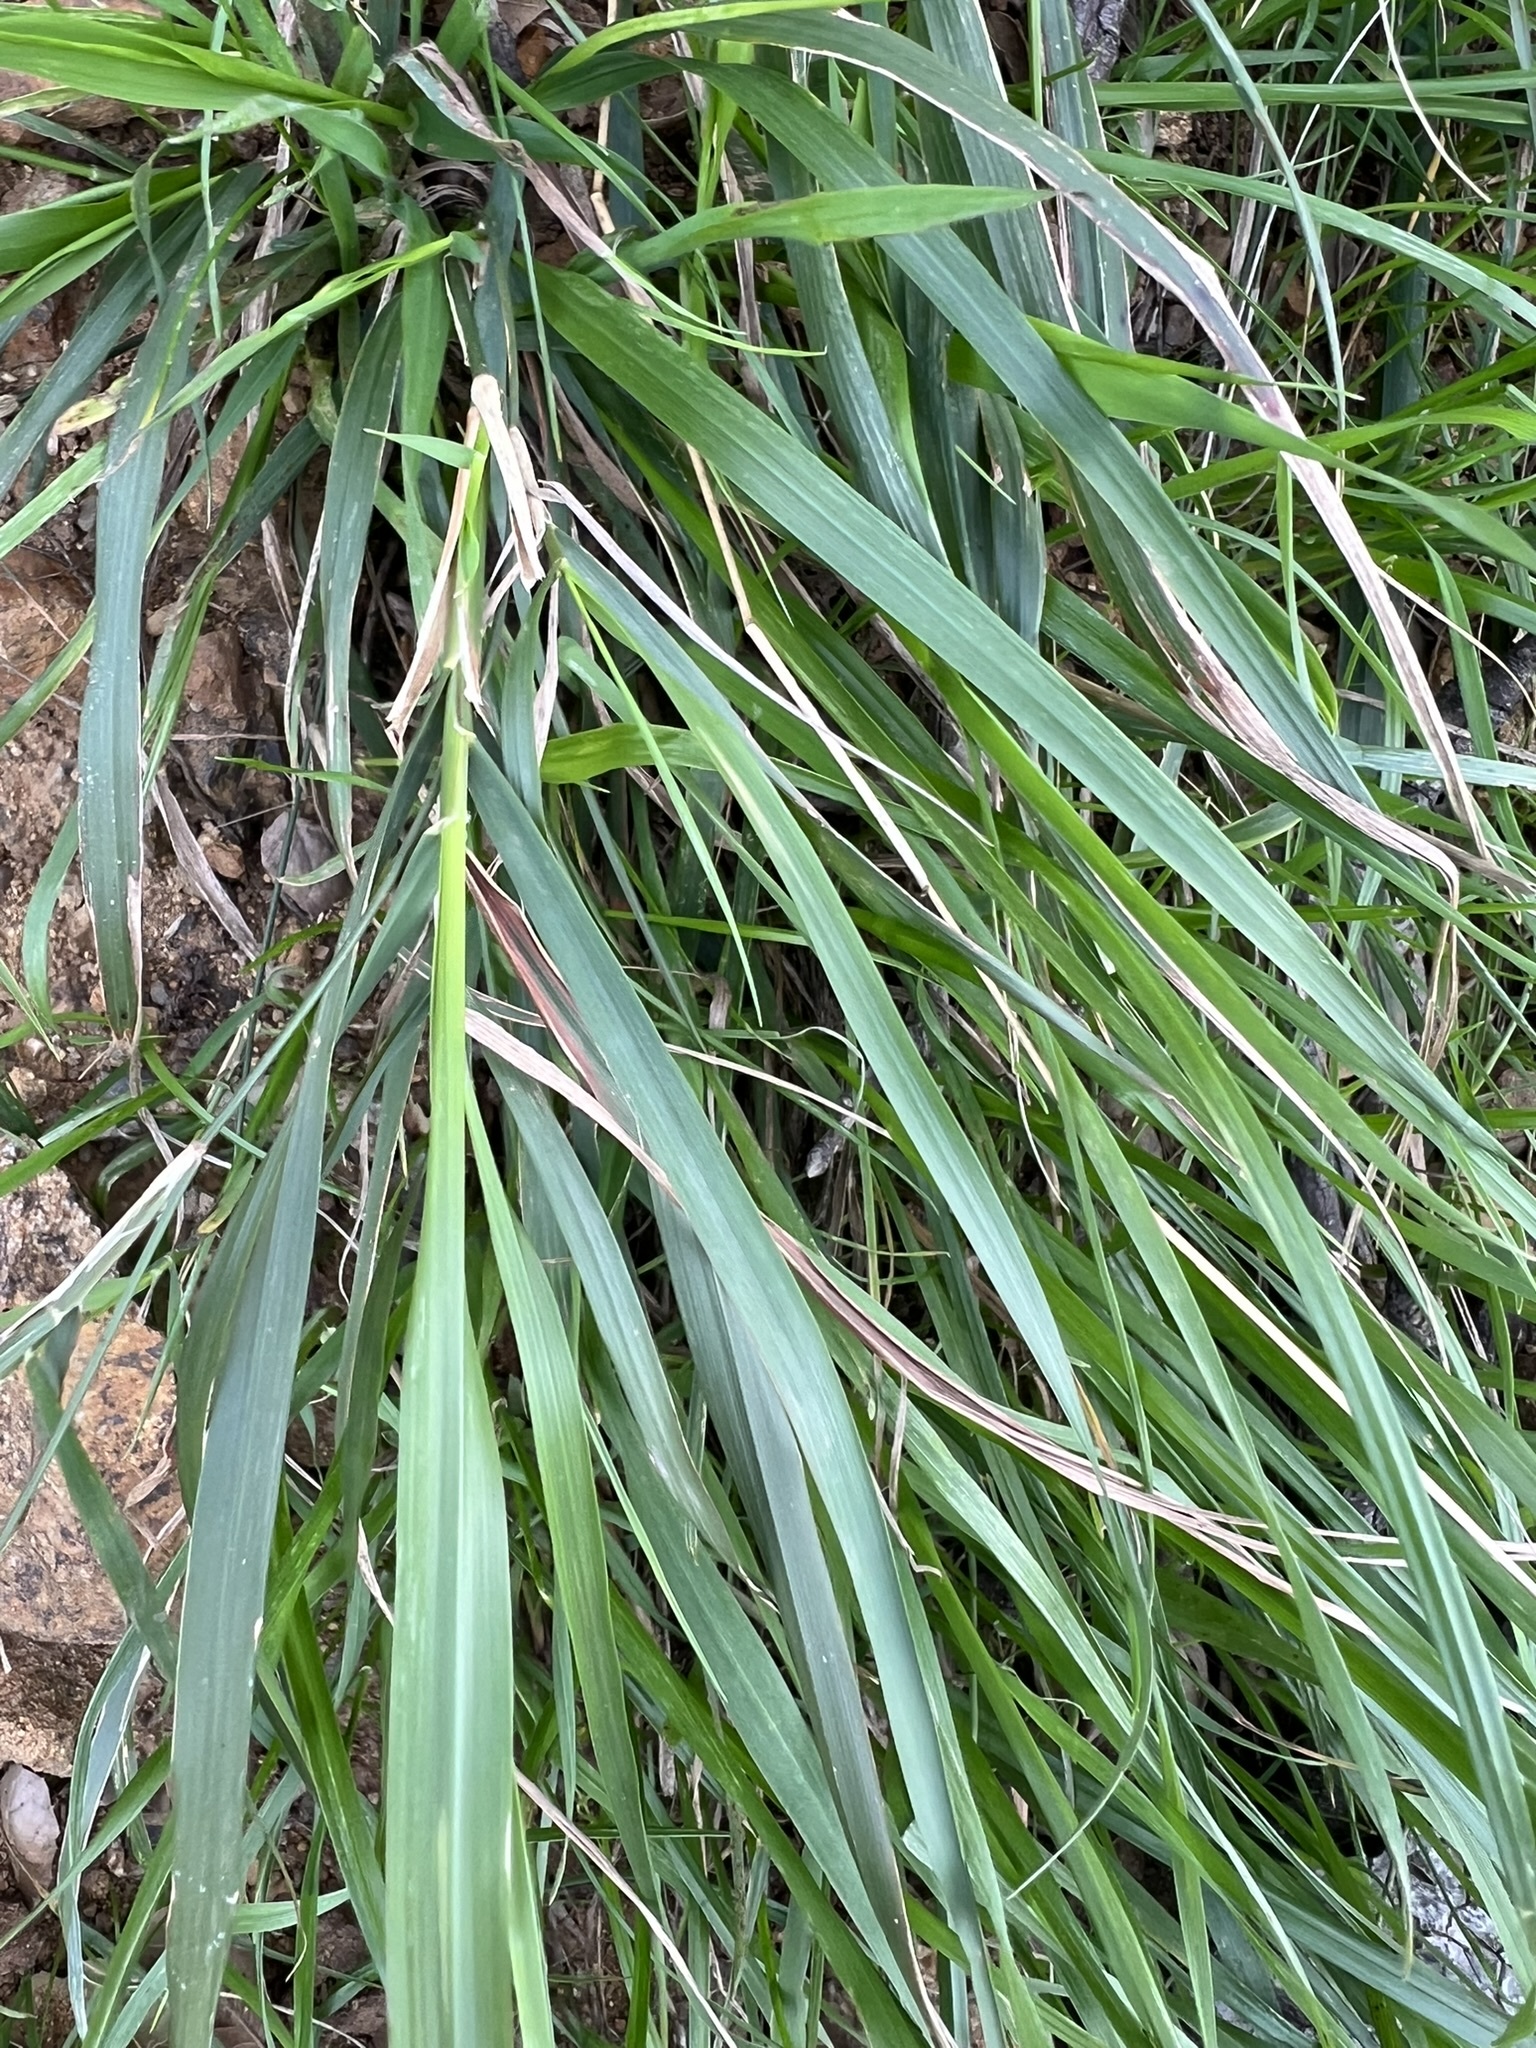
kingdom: Plantae
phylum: Tracheophyta
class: Liliopsida
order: Poales
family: Poaceae
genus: Oloptum
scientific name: Oloptum miliaceum
